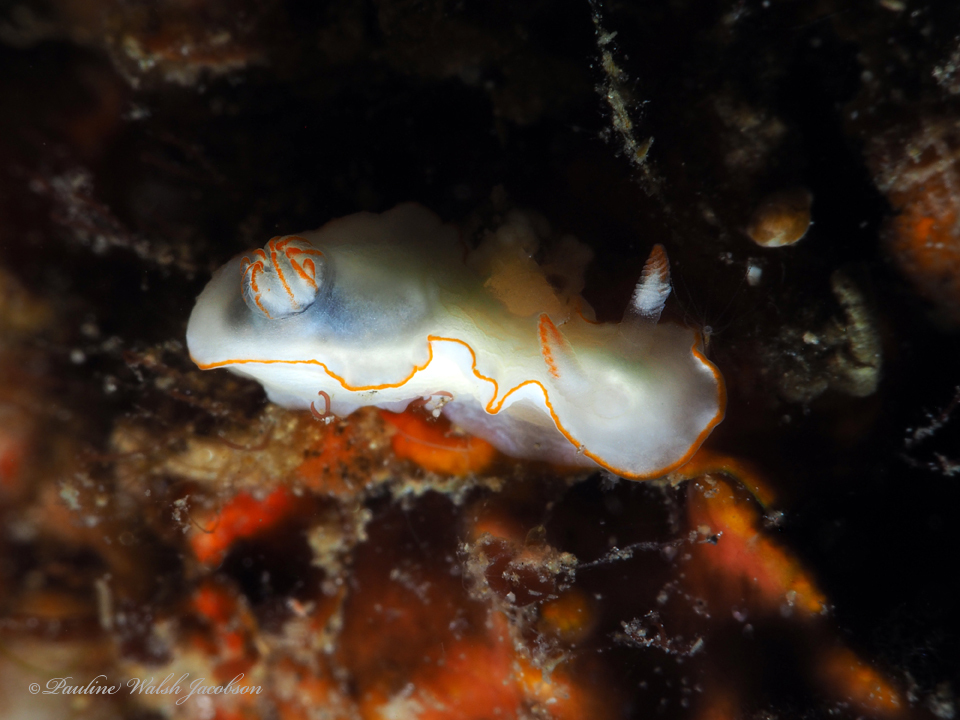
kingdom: Animalia
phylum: Mollusca
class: Gastropoda
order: Nudibranchia
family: Chromodorididae
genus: Thorunna
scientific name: Thorunna furtiva
